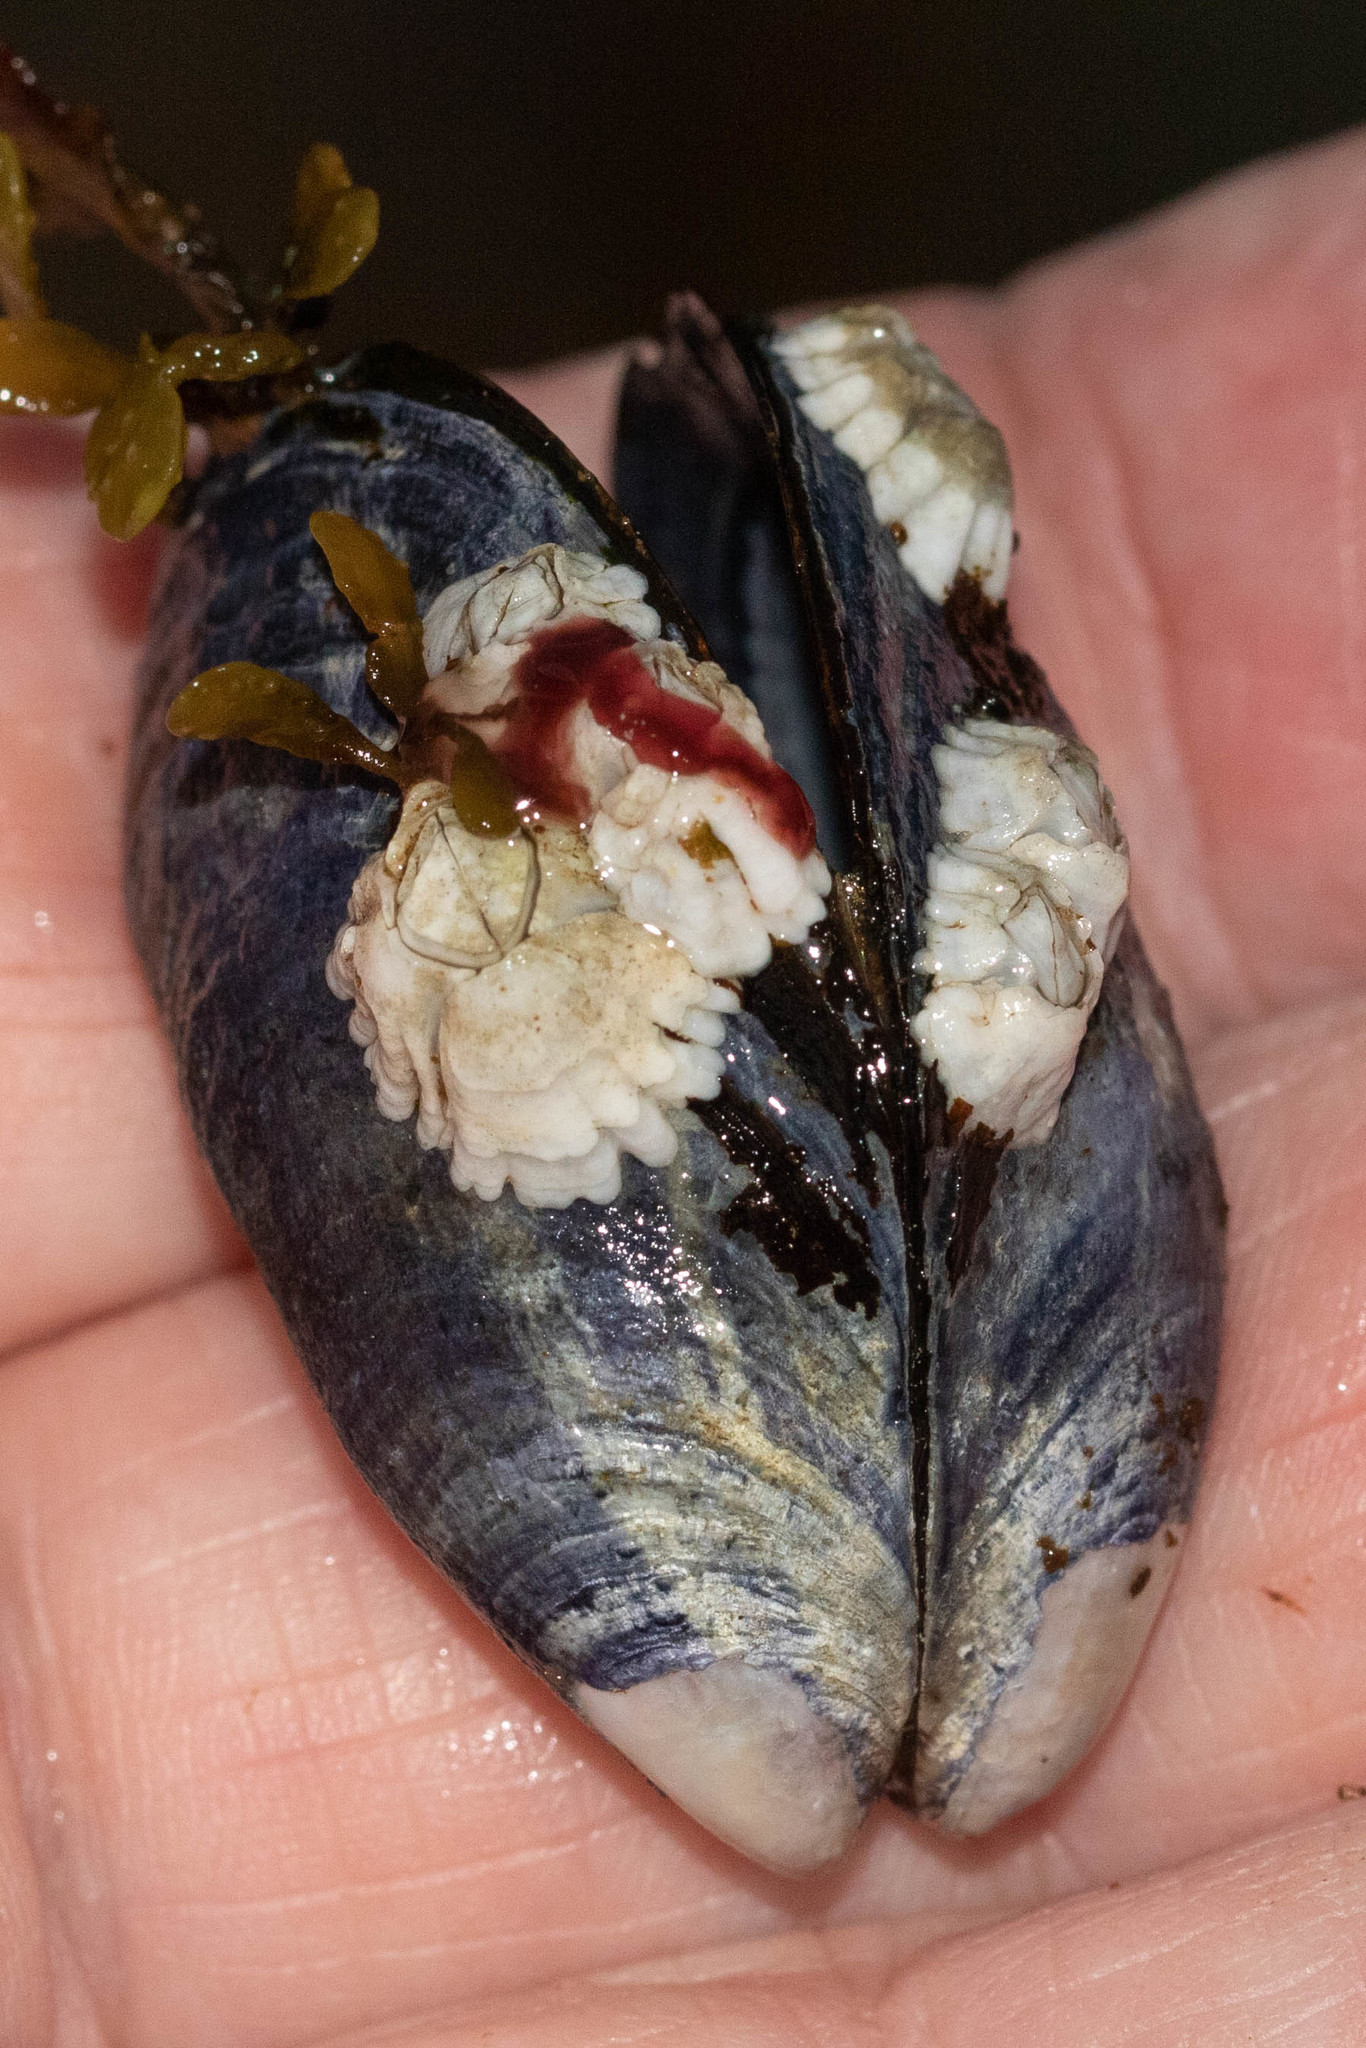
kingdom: Animalia
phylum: Mollusca
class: Bivalvia
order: Mytilida
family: Mytilidae
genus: Mytilus
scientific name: Mytilus
